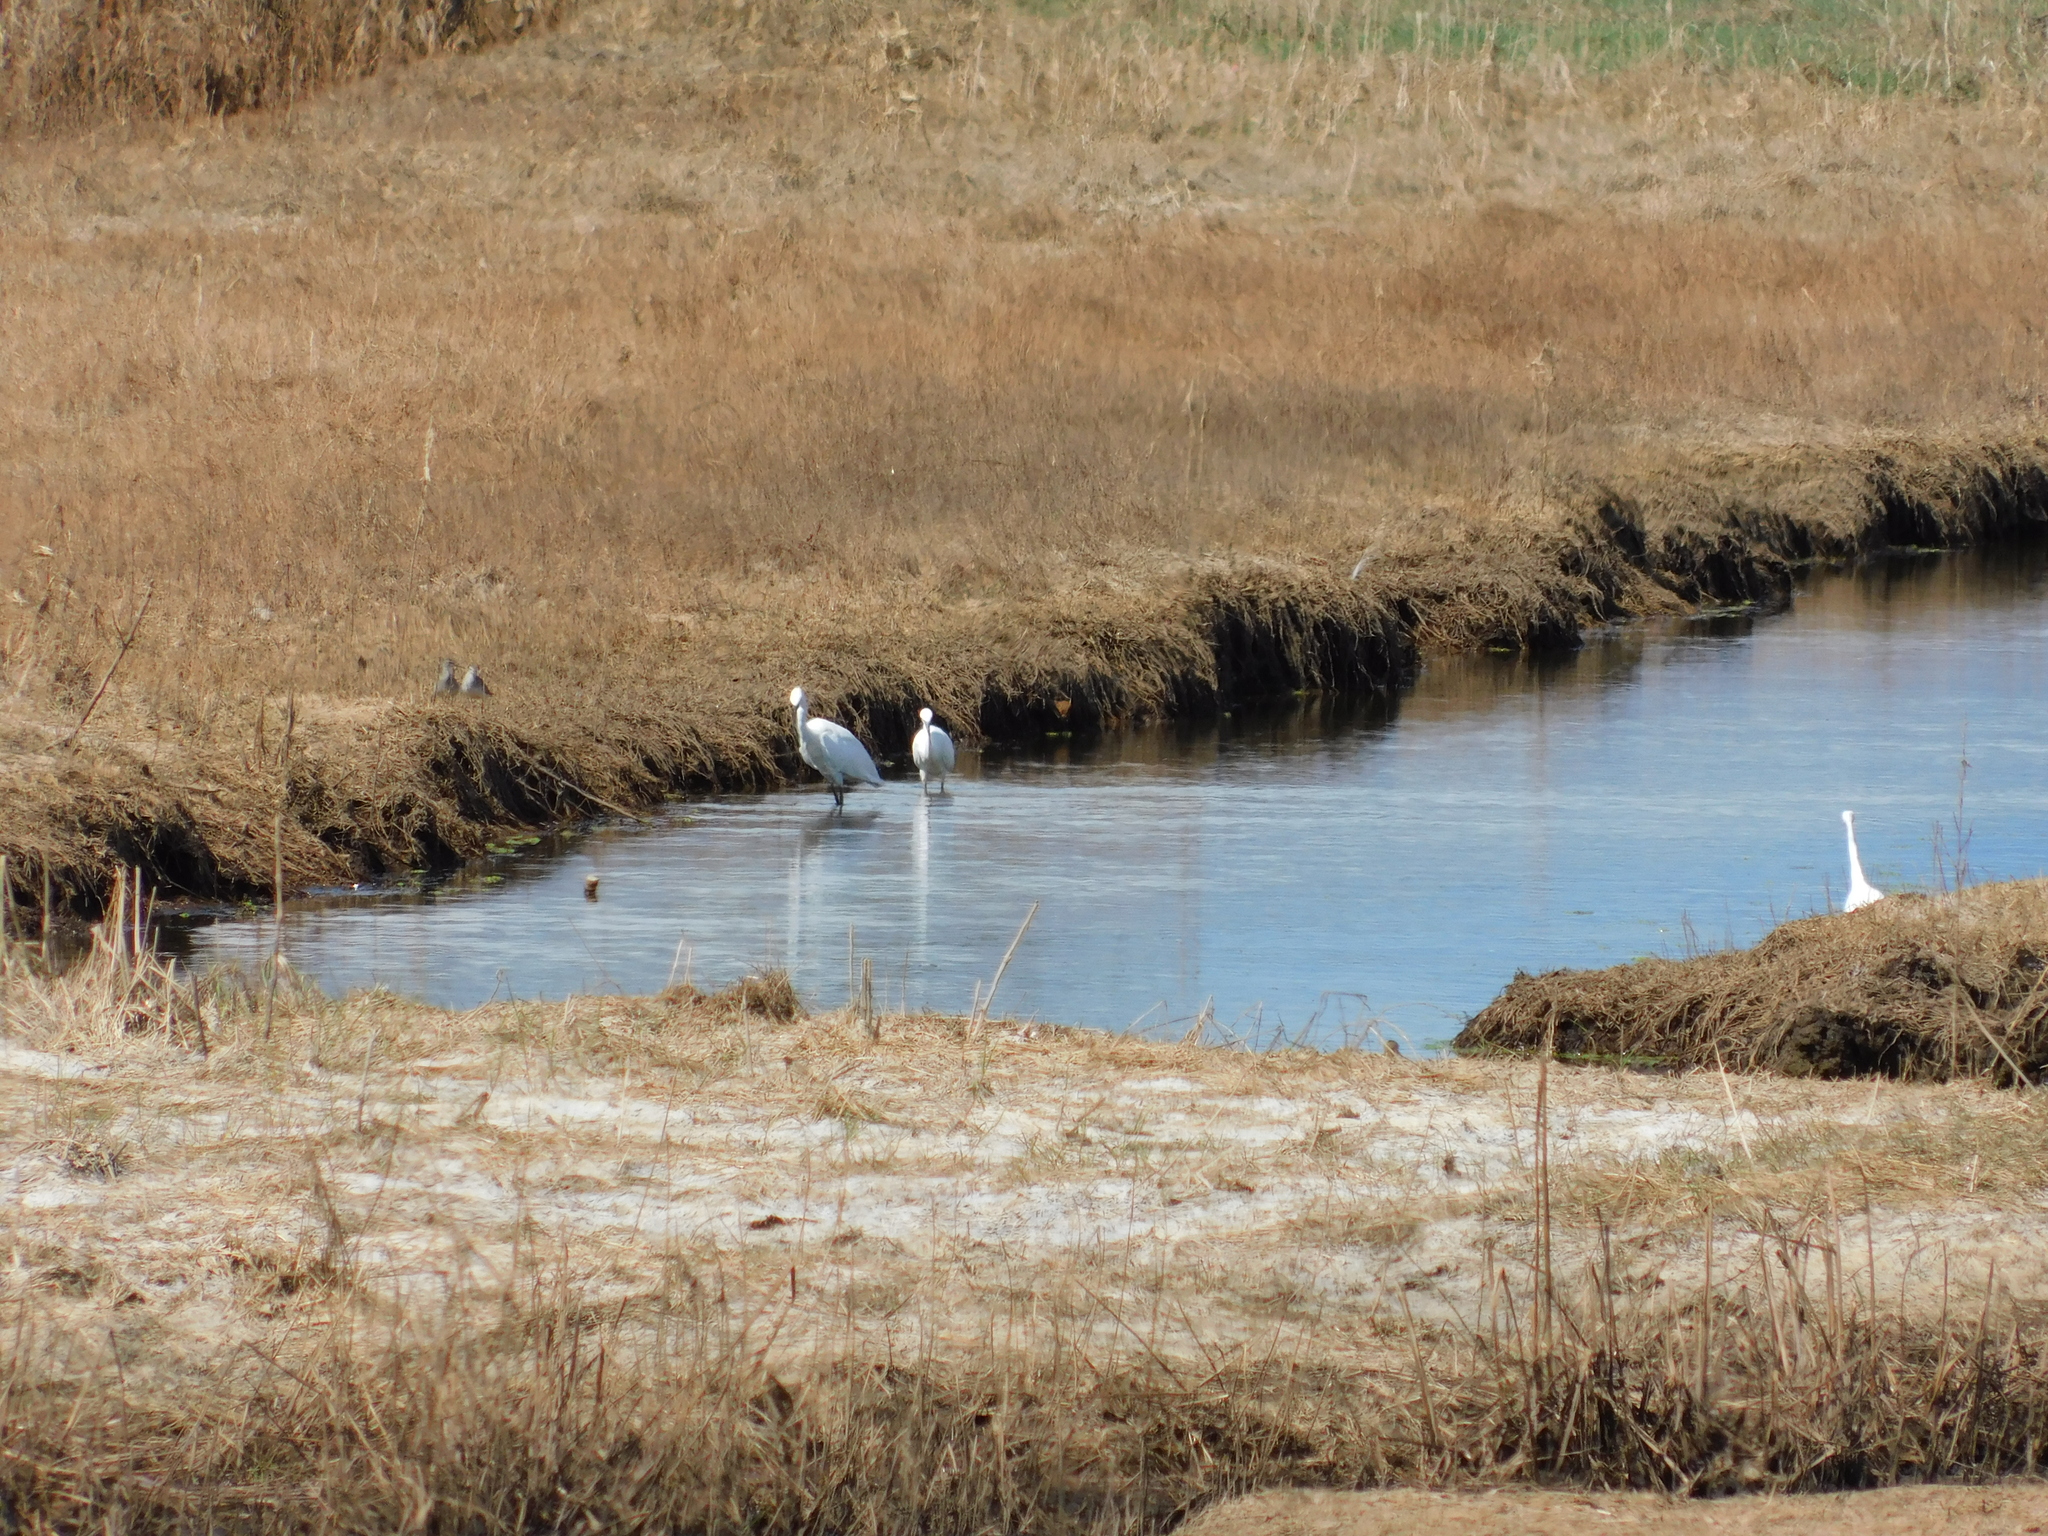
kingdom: Animalia
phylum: Chordata
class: Aves
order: Pelecaniformes
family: Ardeidae
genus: Egretta
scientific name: Egretta garzetta
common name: Little egret
